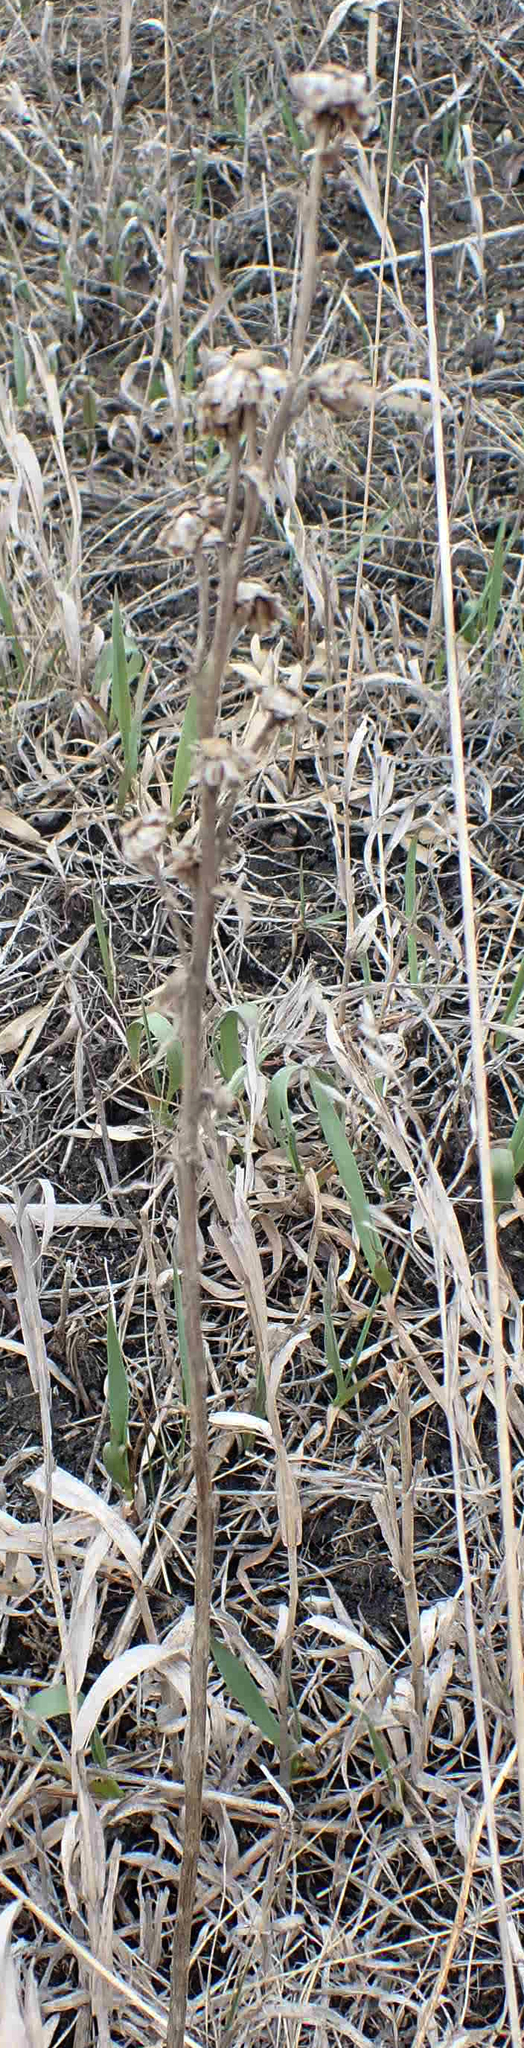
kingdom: Plantae
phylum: Tracheophyta
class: Magnoliopsida
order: Asterales
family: Asteraceae
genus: Liatris
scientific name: Liatris ligulistylis
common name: Northern plains gayfeather
